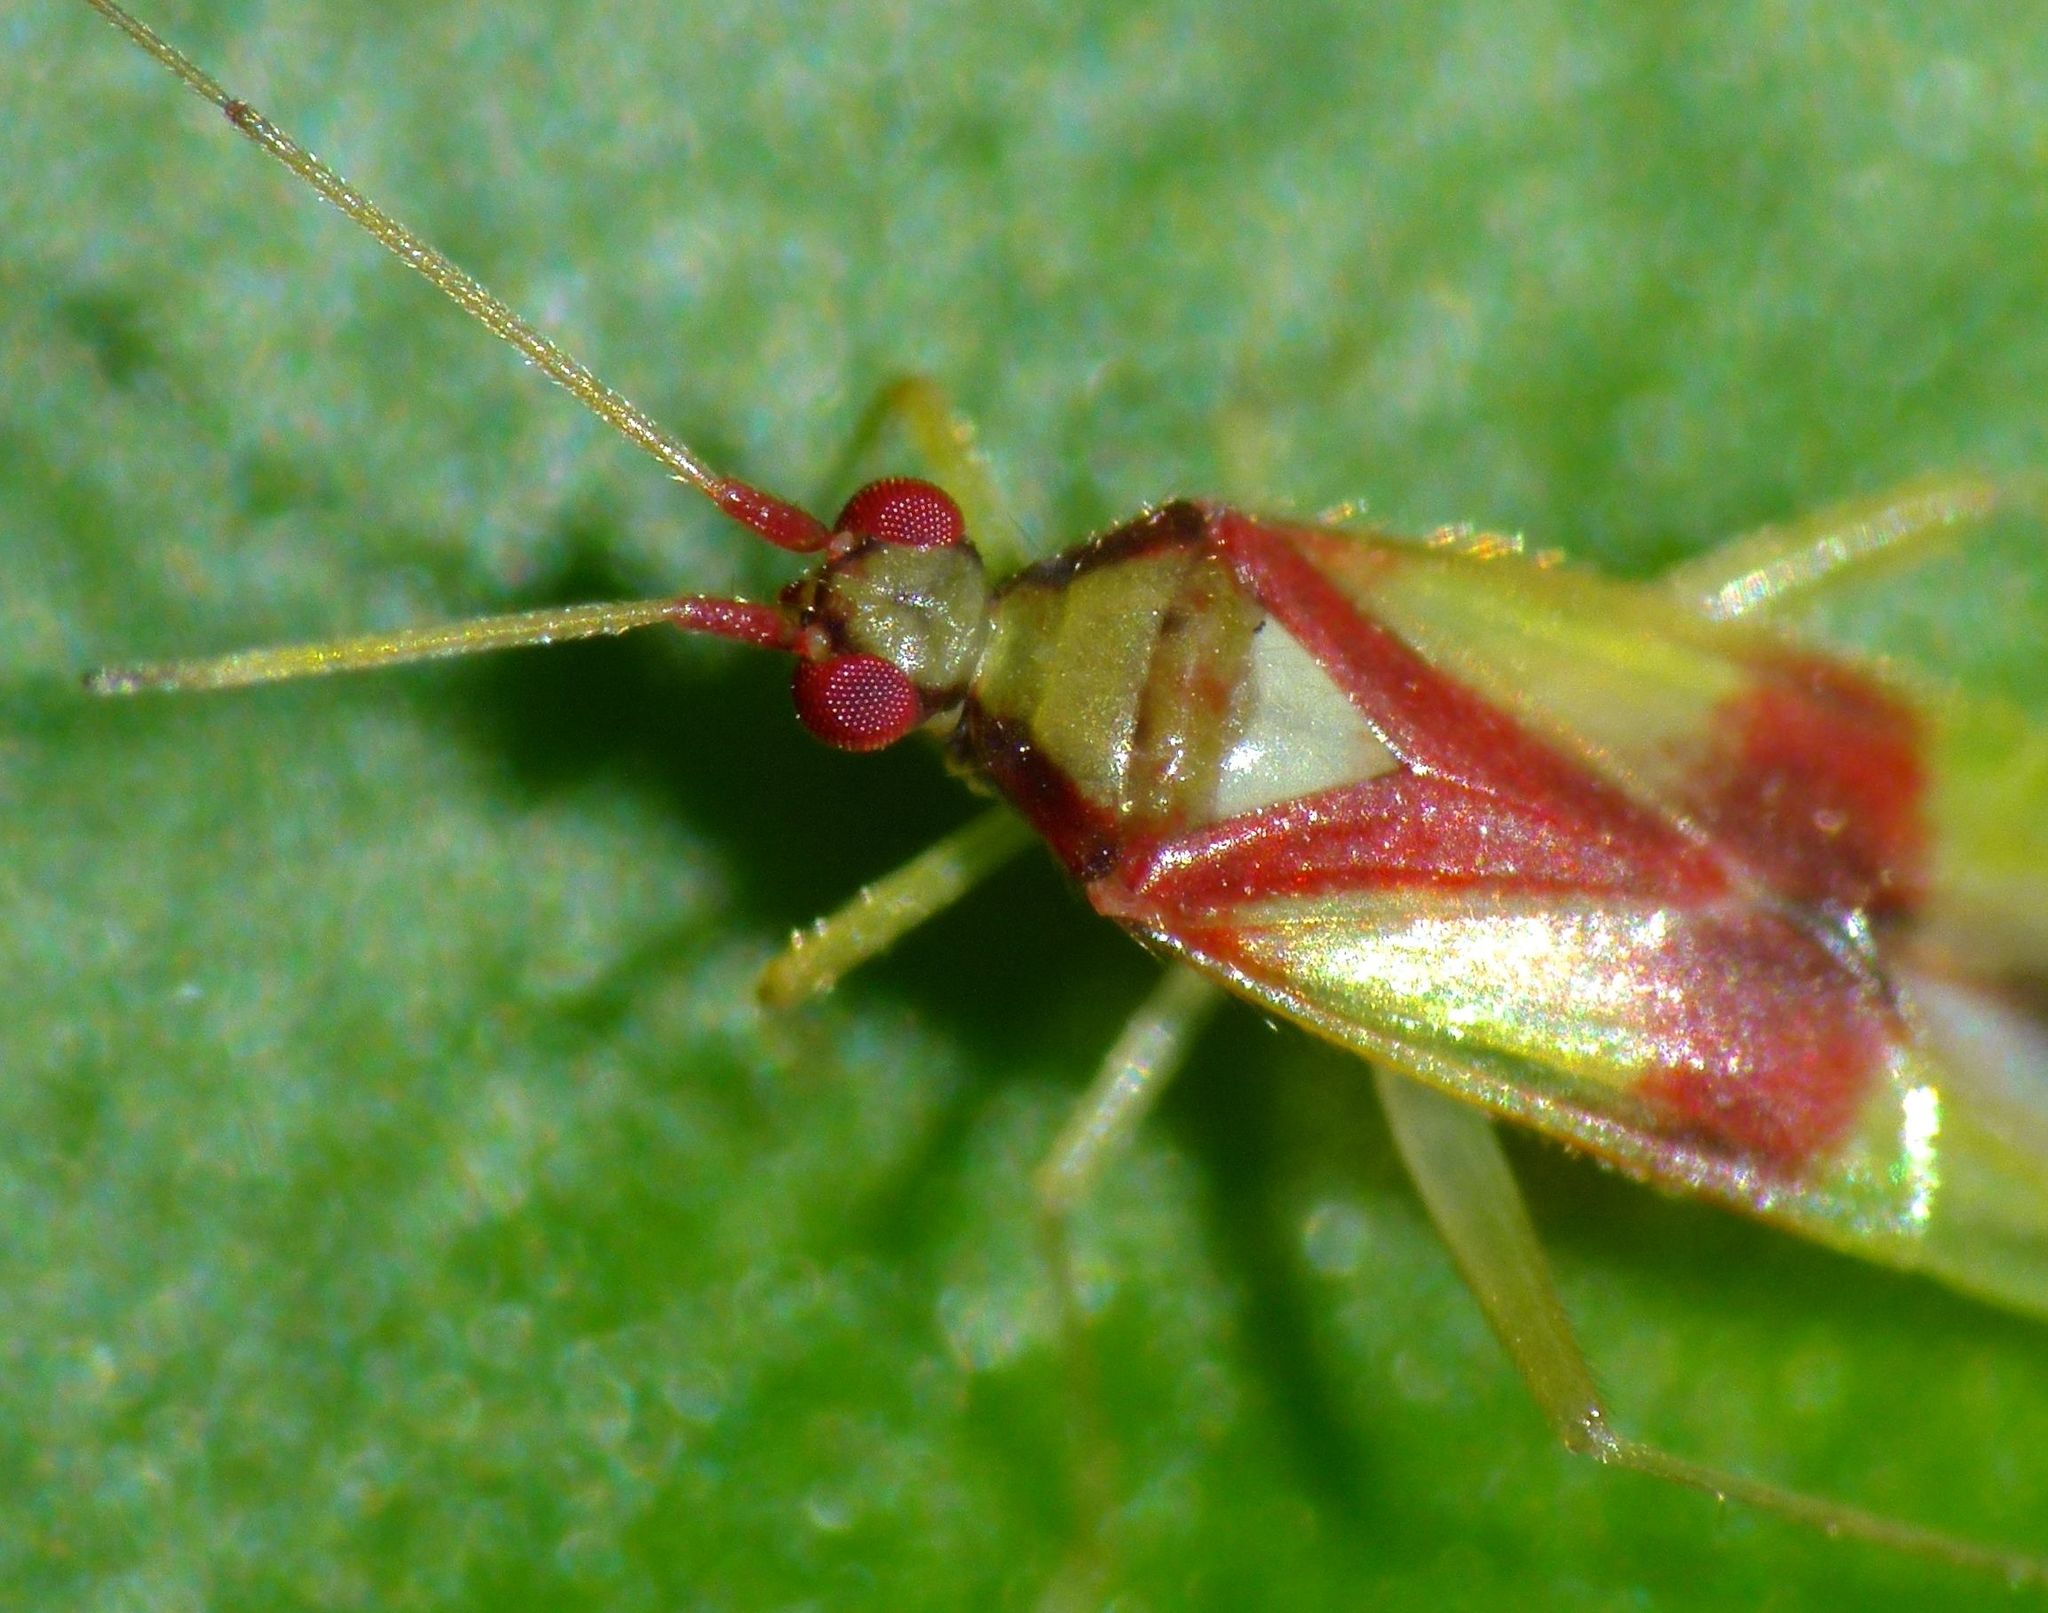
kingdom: Animalia
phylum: Arthropoda
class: Insecta
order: Hemiptera
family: Miridae
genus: Zanchius
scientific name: Zanchius rubicrux
